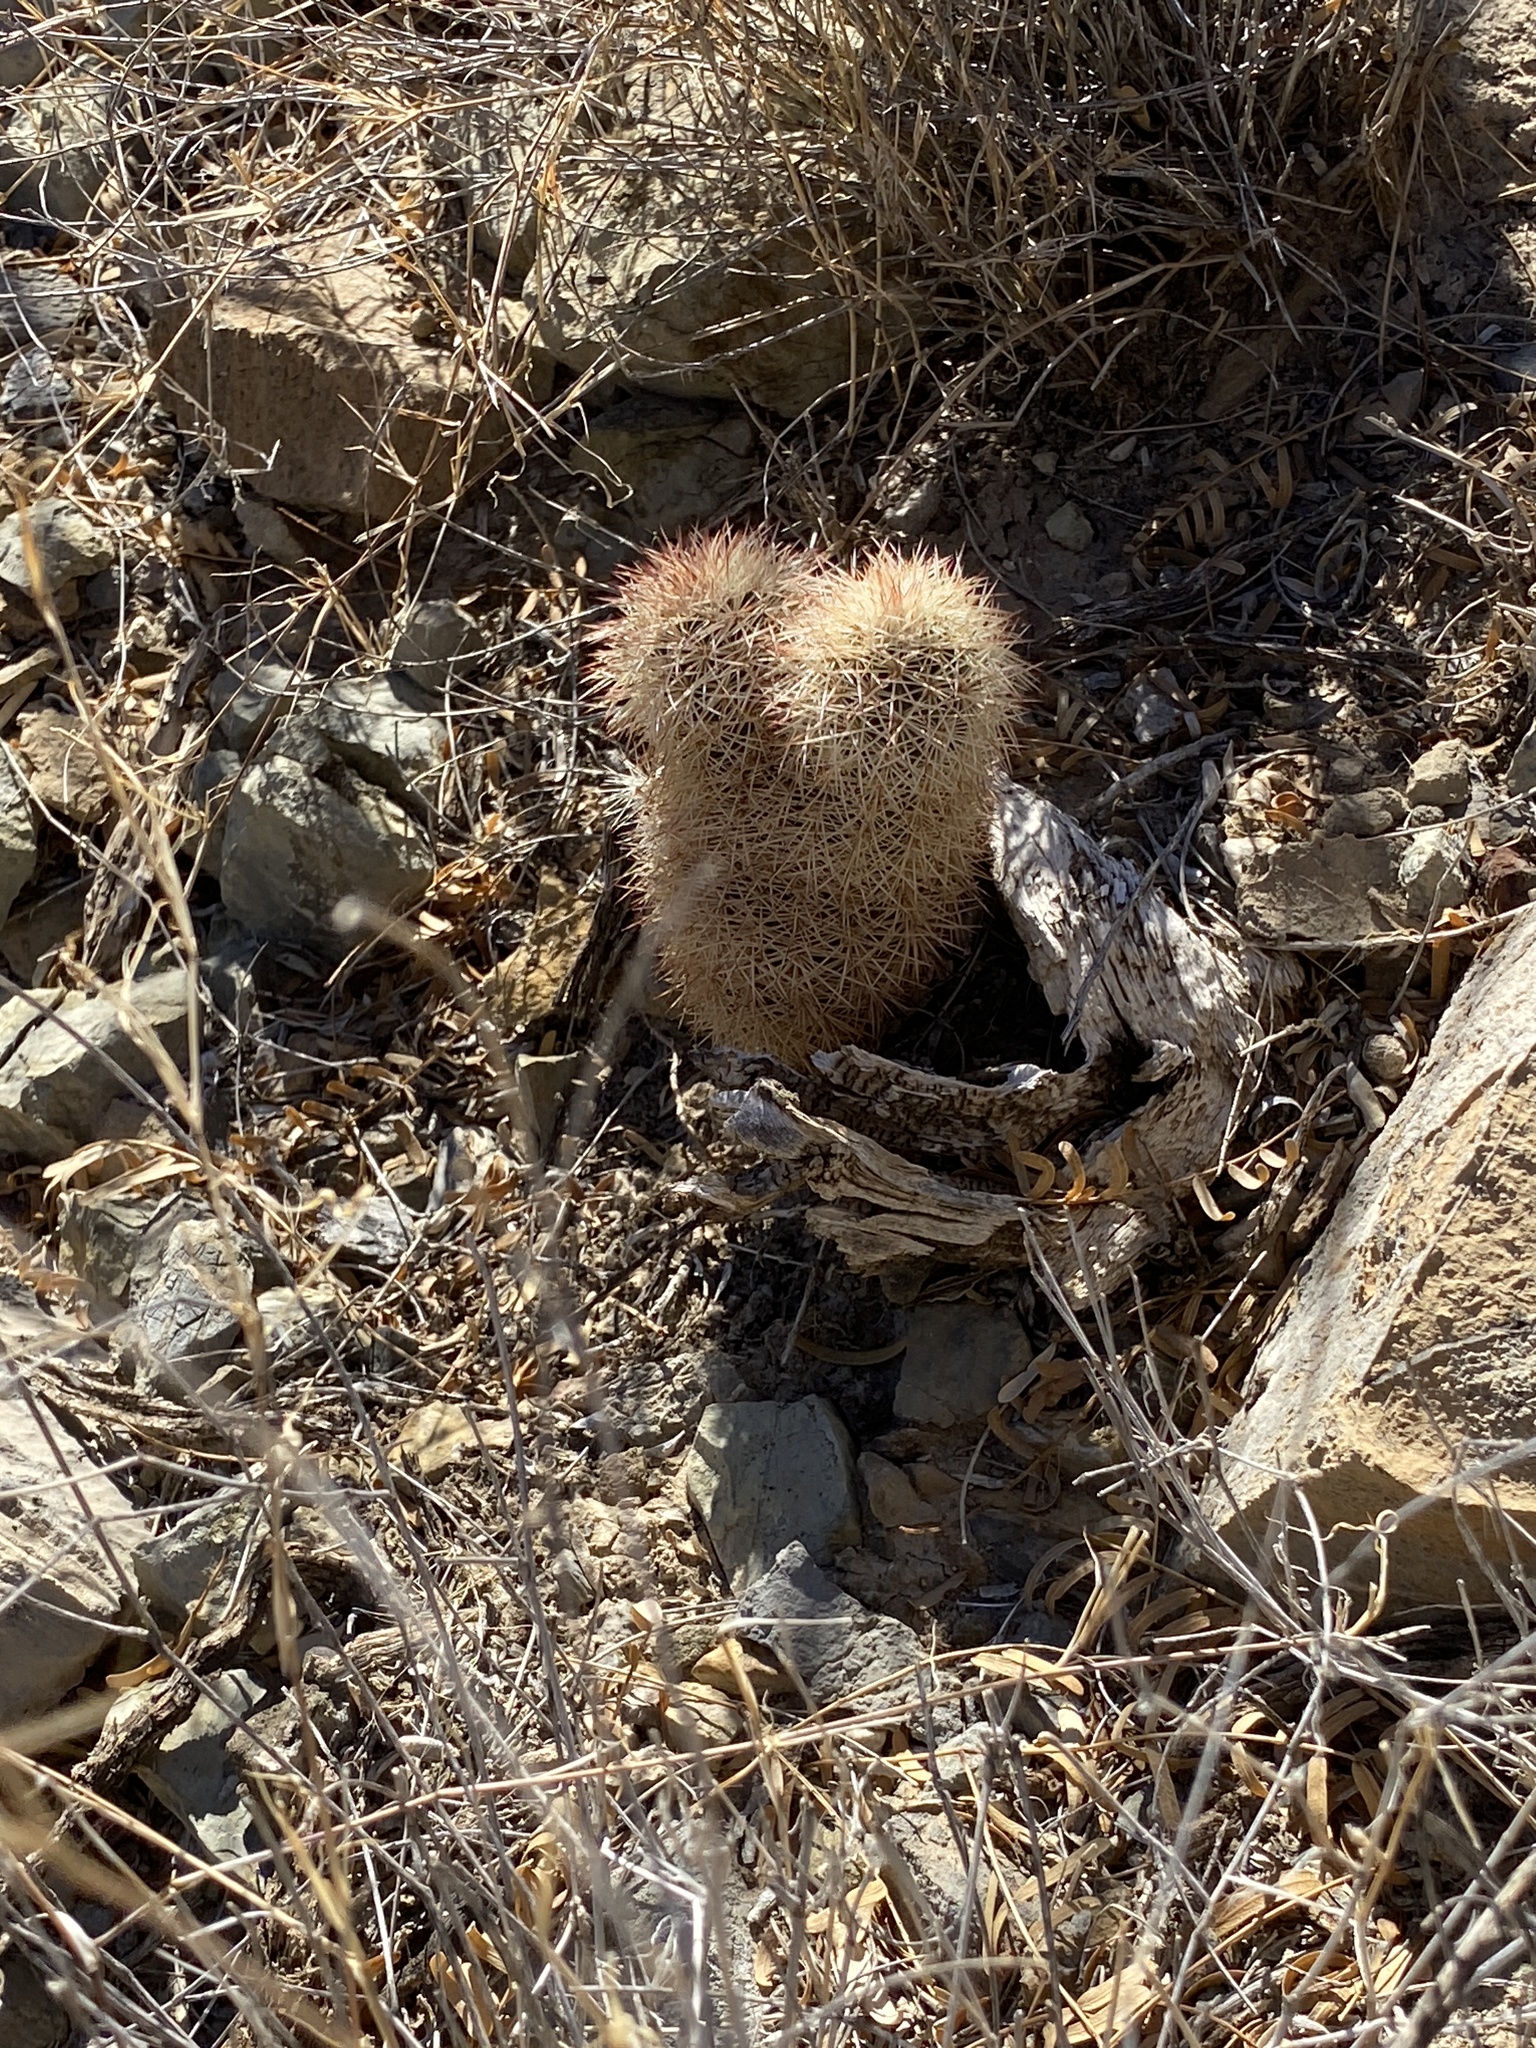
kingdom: Plantae
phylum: Tracheophyta
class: Magnoliopsida
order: Caryophyllales
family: Cactaceae
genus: Echinocereus
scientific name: Echinocereus dasyacanthus
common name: Spiny hedgehog cactus
